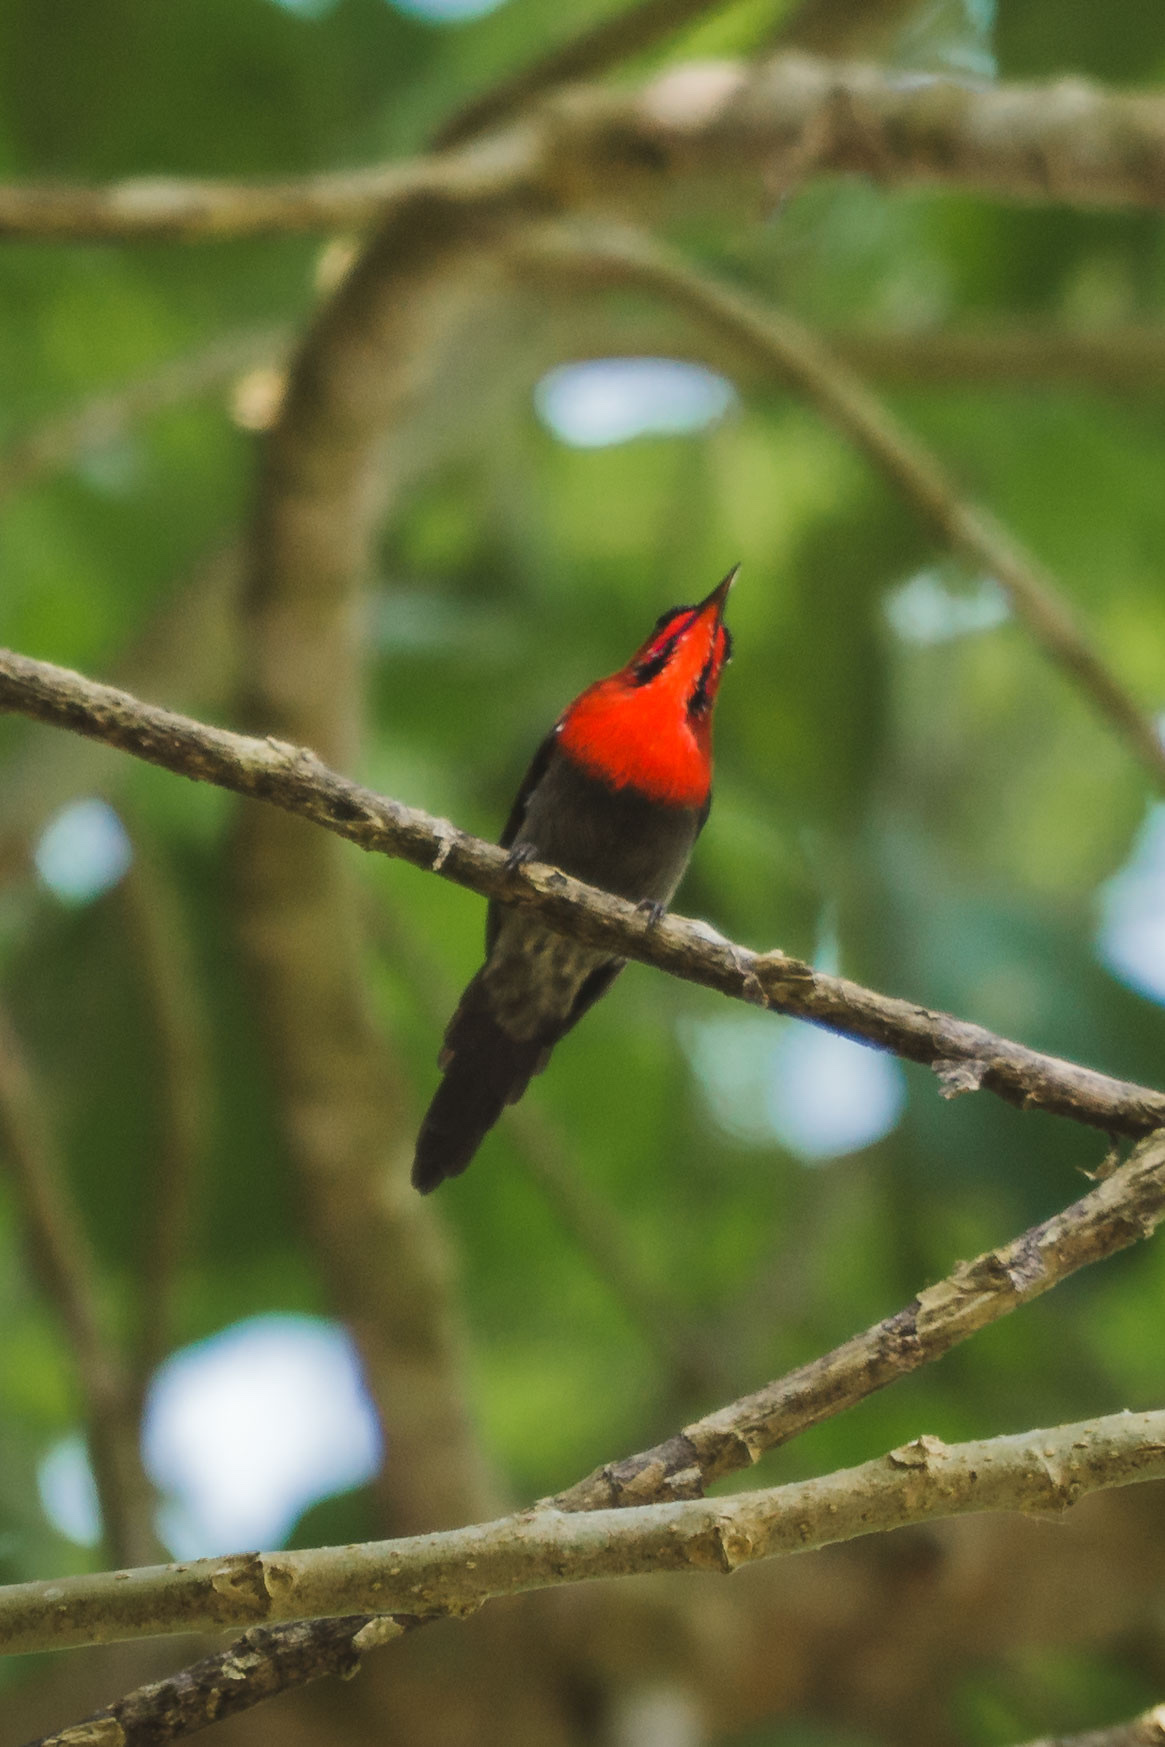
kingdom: Animalia
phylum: Chordata
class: Aves
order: Passeriformes
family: Nectariniidae
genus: Aethopyga
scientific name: Aethopyga siparaja
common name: Crimson sunbird
